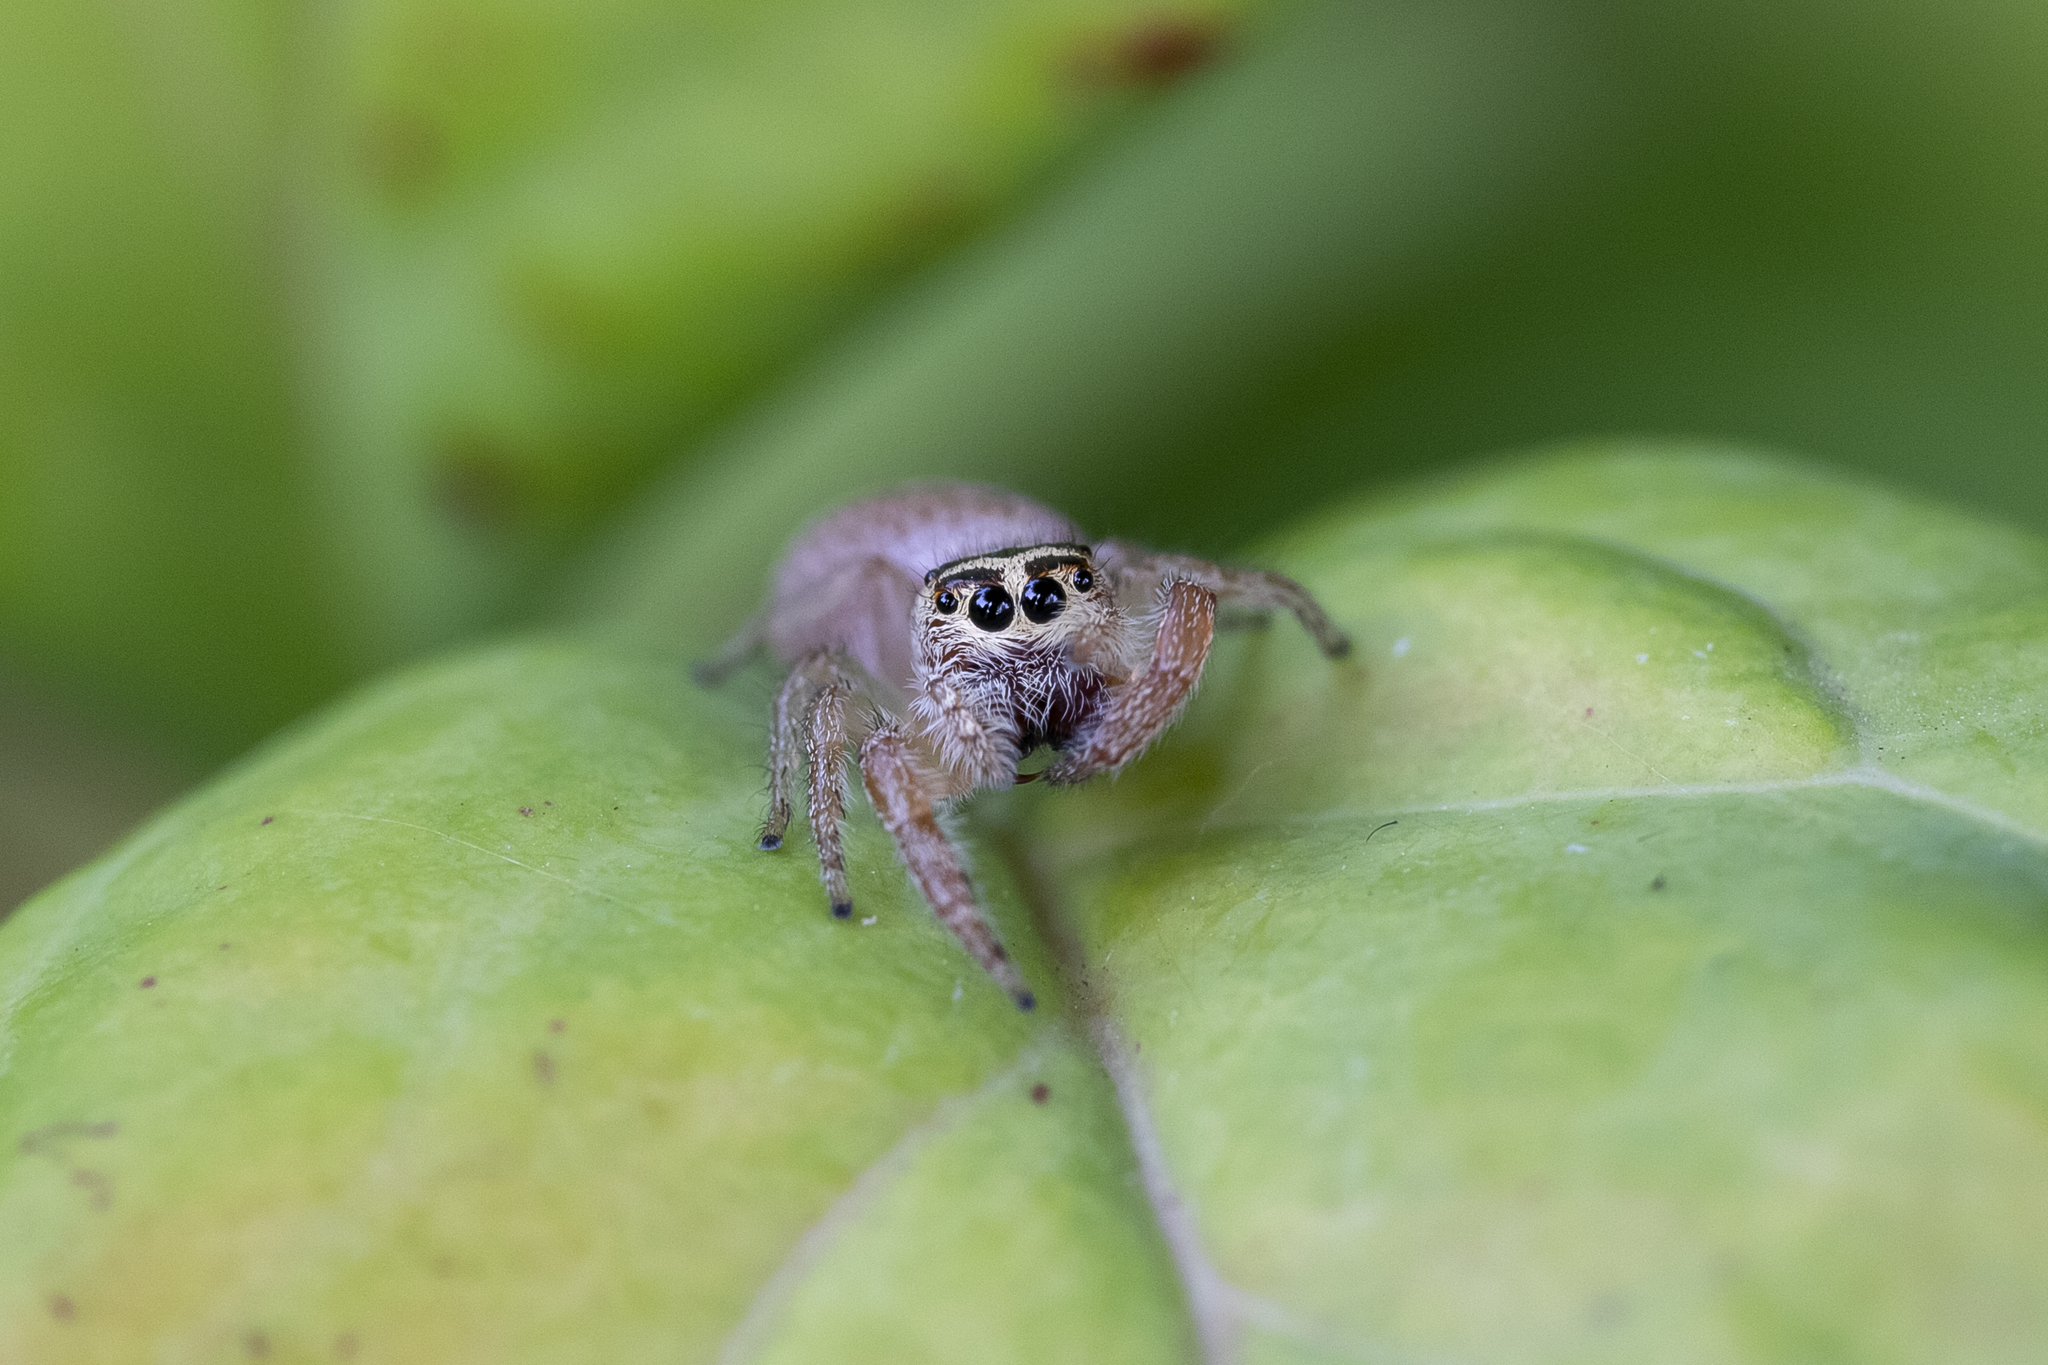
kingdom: Animalia
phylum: Arthropoda
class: Arachnida
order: Araneae
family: Salticidae
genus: Opisthoncus
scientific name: Opisthoncus nigrofemoratus
